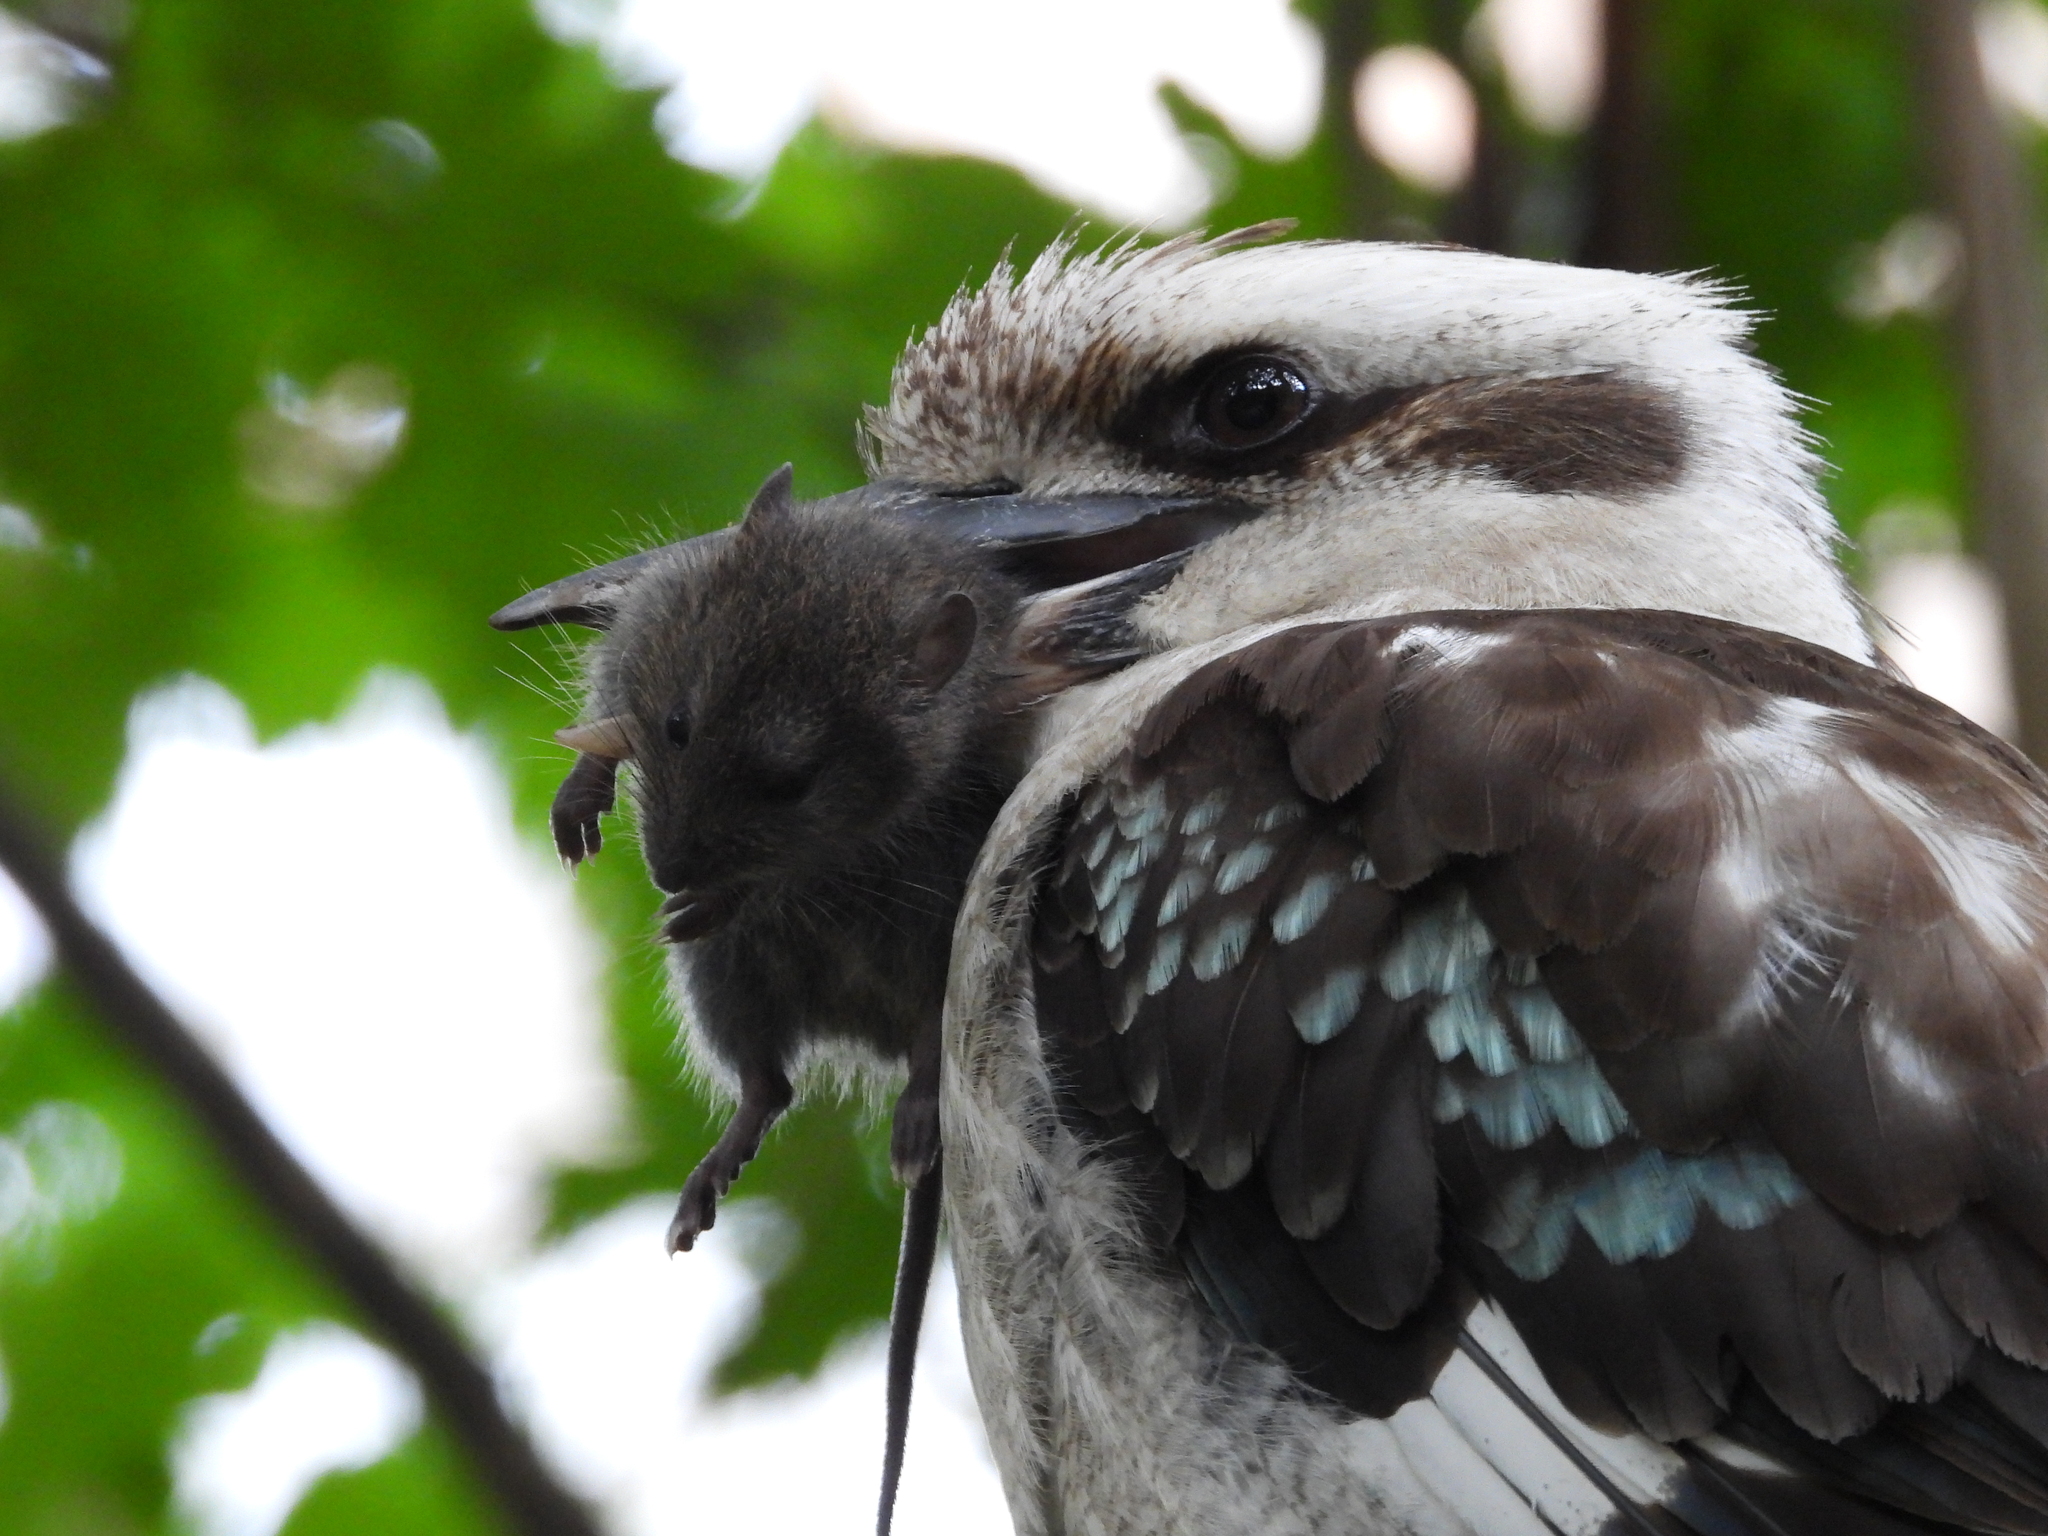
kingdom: Animalia
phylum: Chordata
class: Mammalia
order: Rodentia
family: Muridae
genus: Rattus
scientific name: Rattus lutreolus
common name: Australian swamp rat
